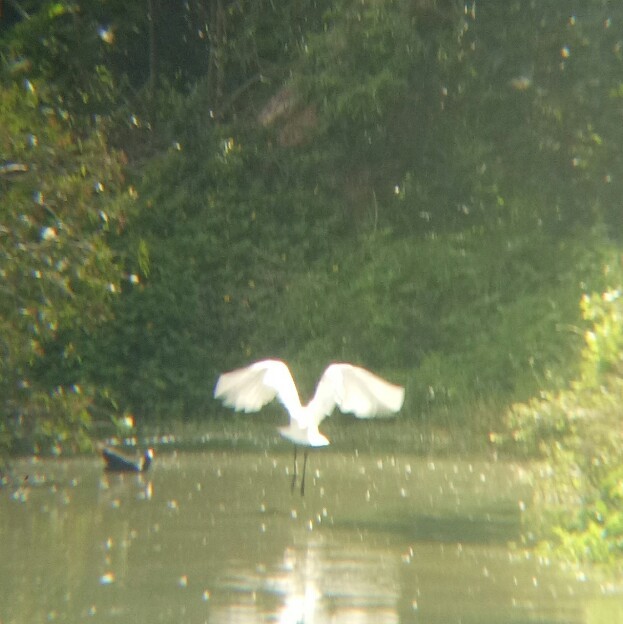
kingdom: Animalia
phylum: Chordata
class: Aves
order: Pelecaniformes
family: Threskiornithidae
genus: Platalea
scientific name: Platalea regia
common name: Royal spoonbill
